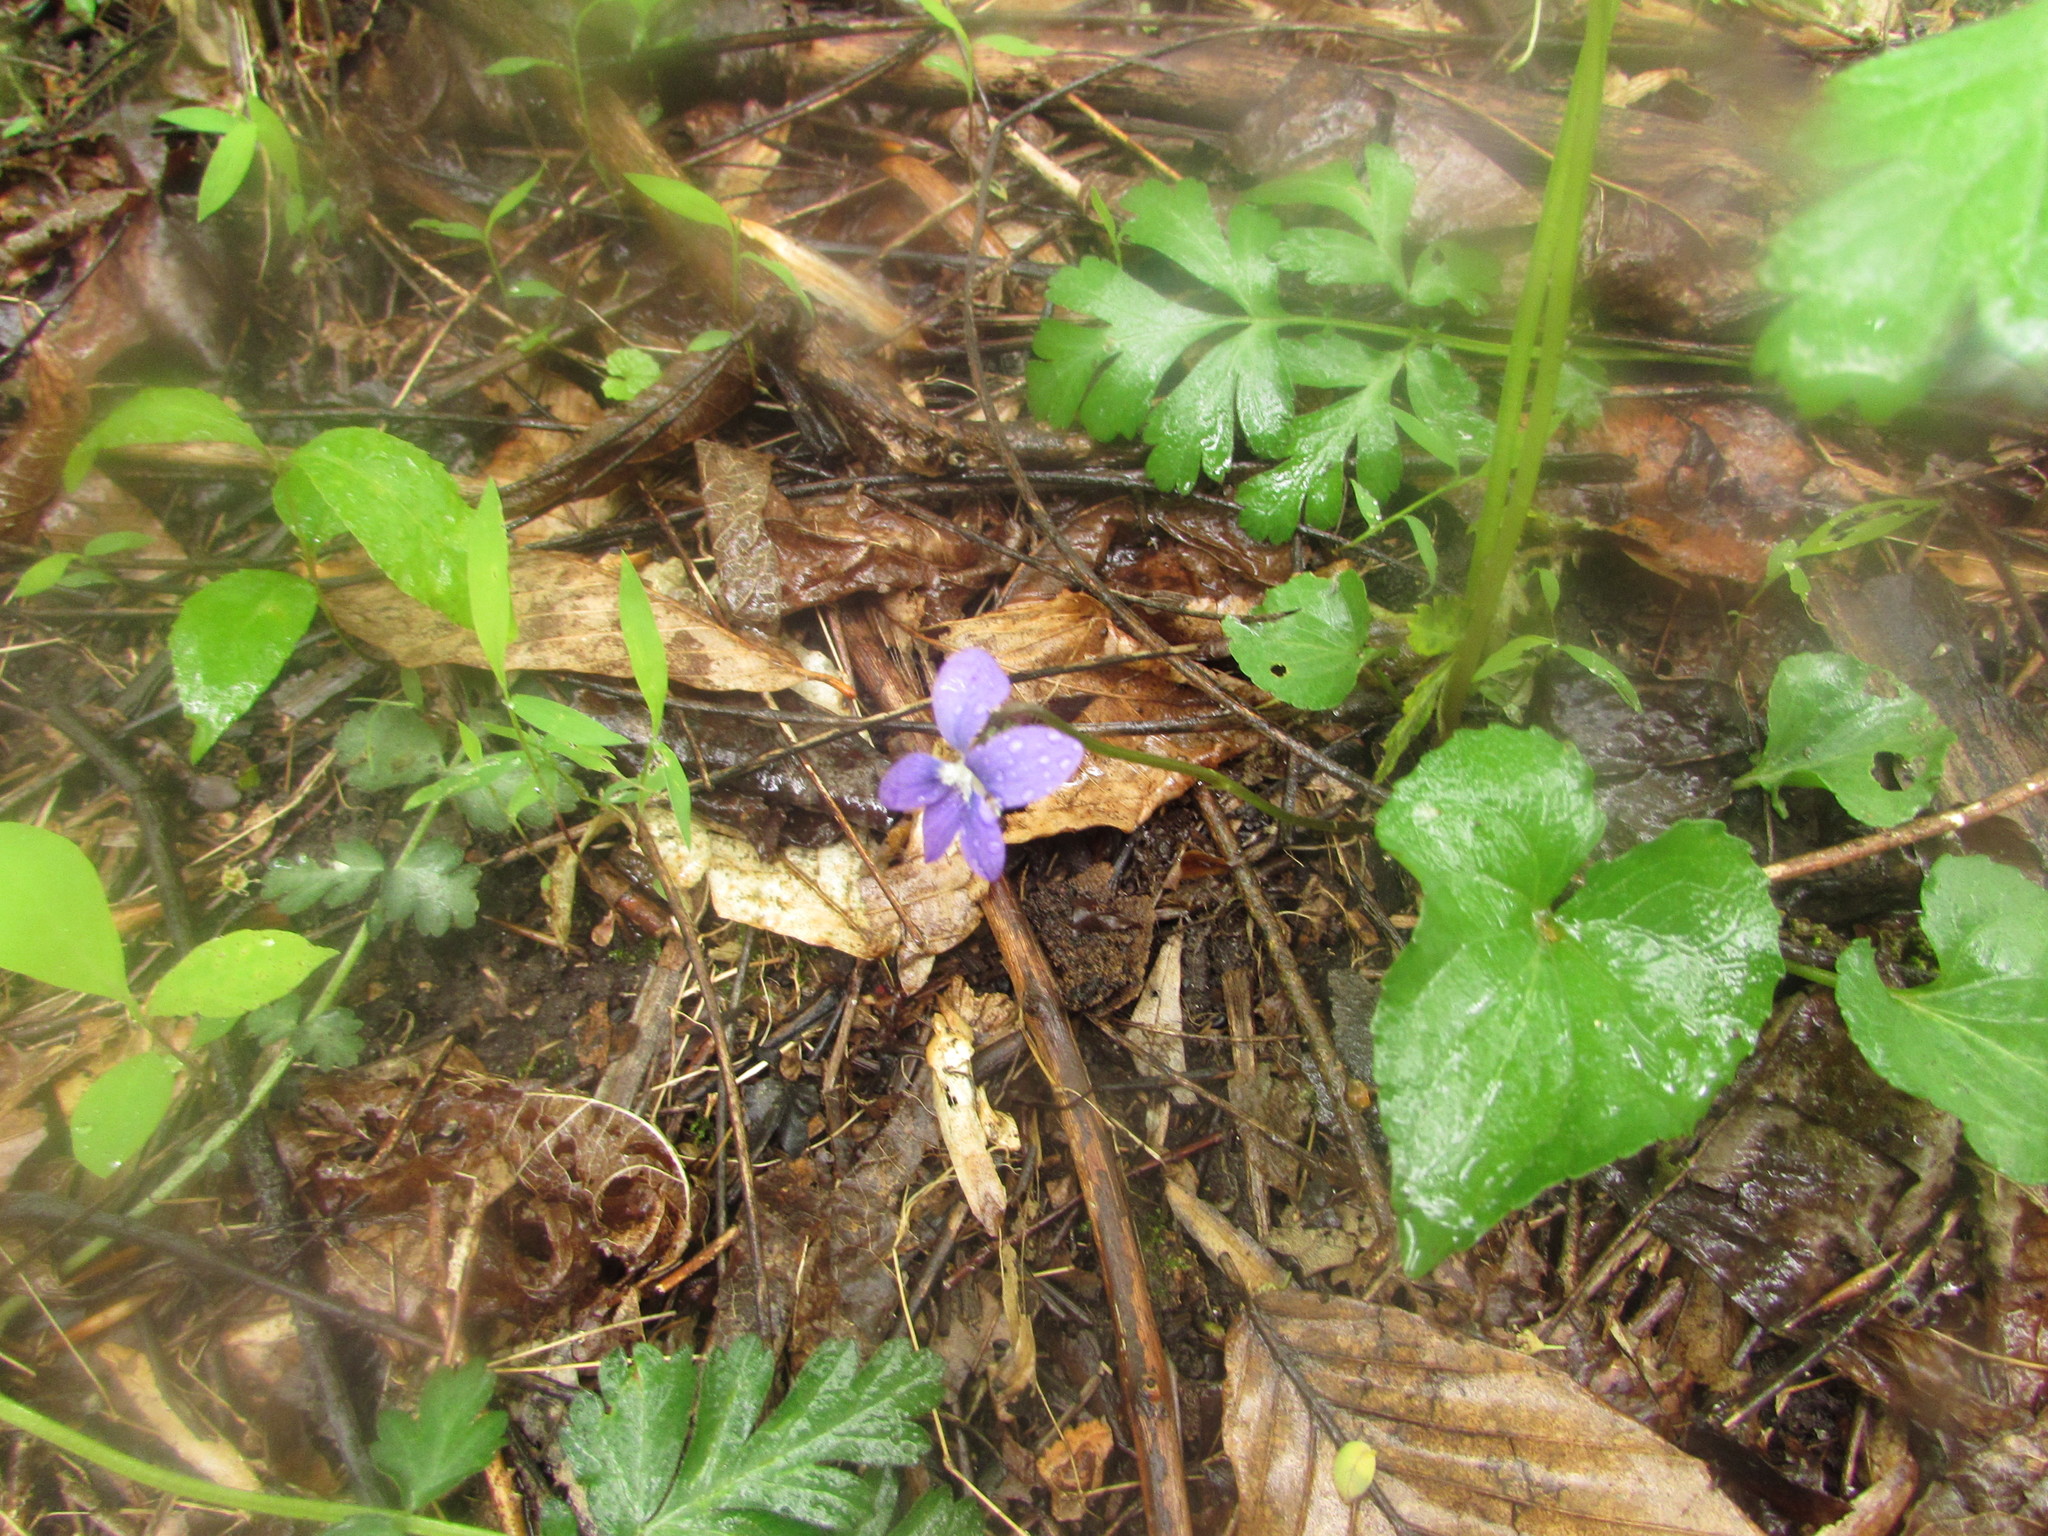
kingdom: Plantae
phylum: Tracheophyta
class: Magnoliopsida
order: Malpighiales
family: Violaceae
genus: Viola
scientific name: Viola sororia
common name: Dooryard violet
